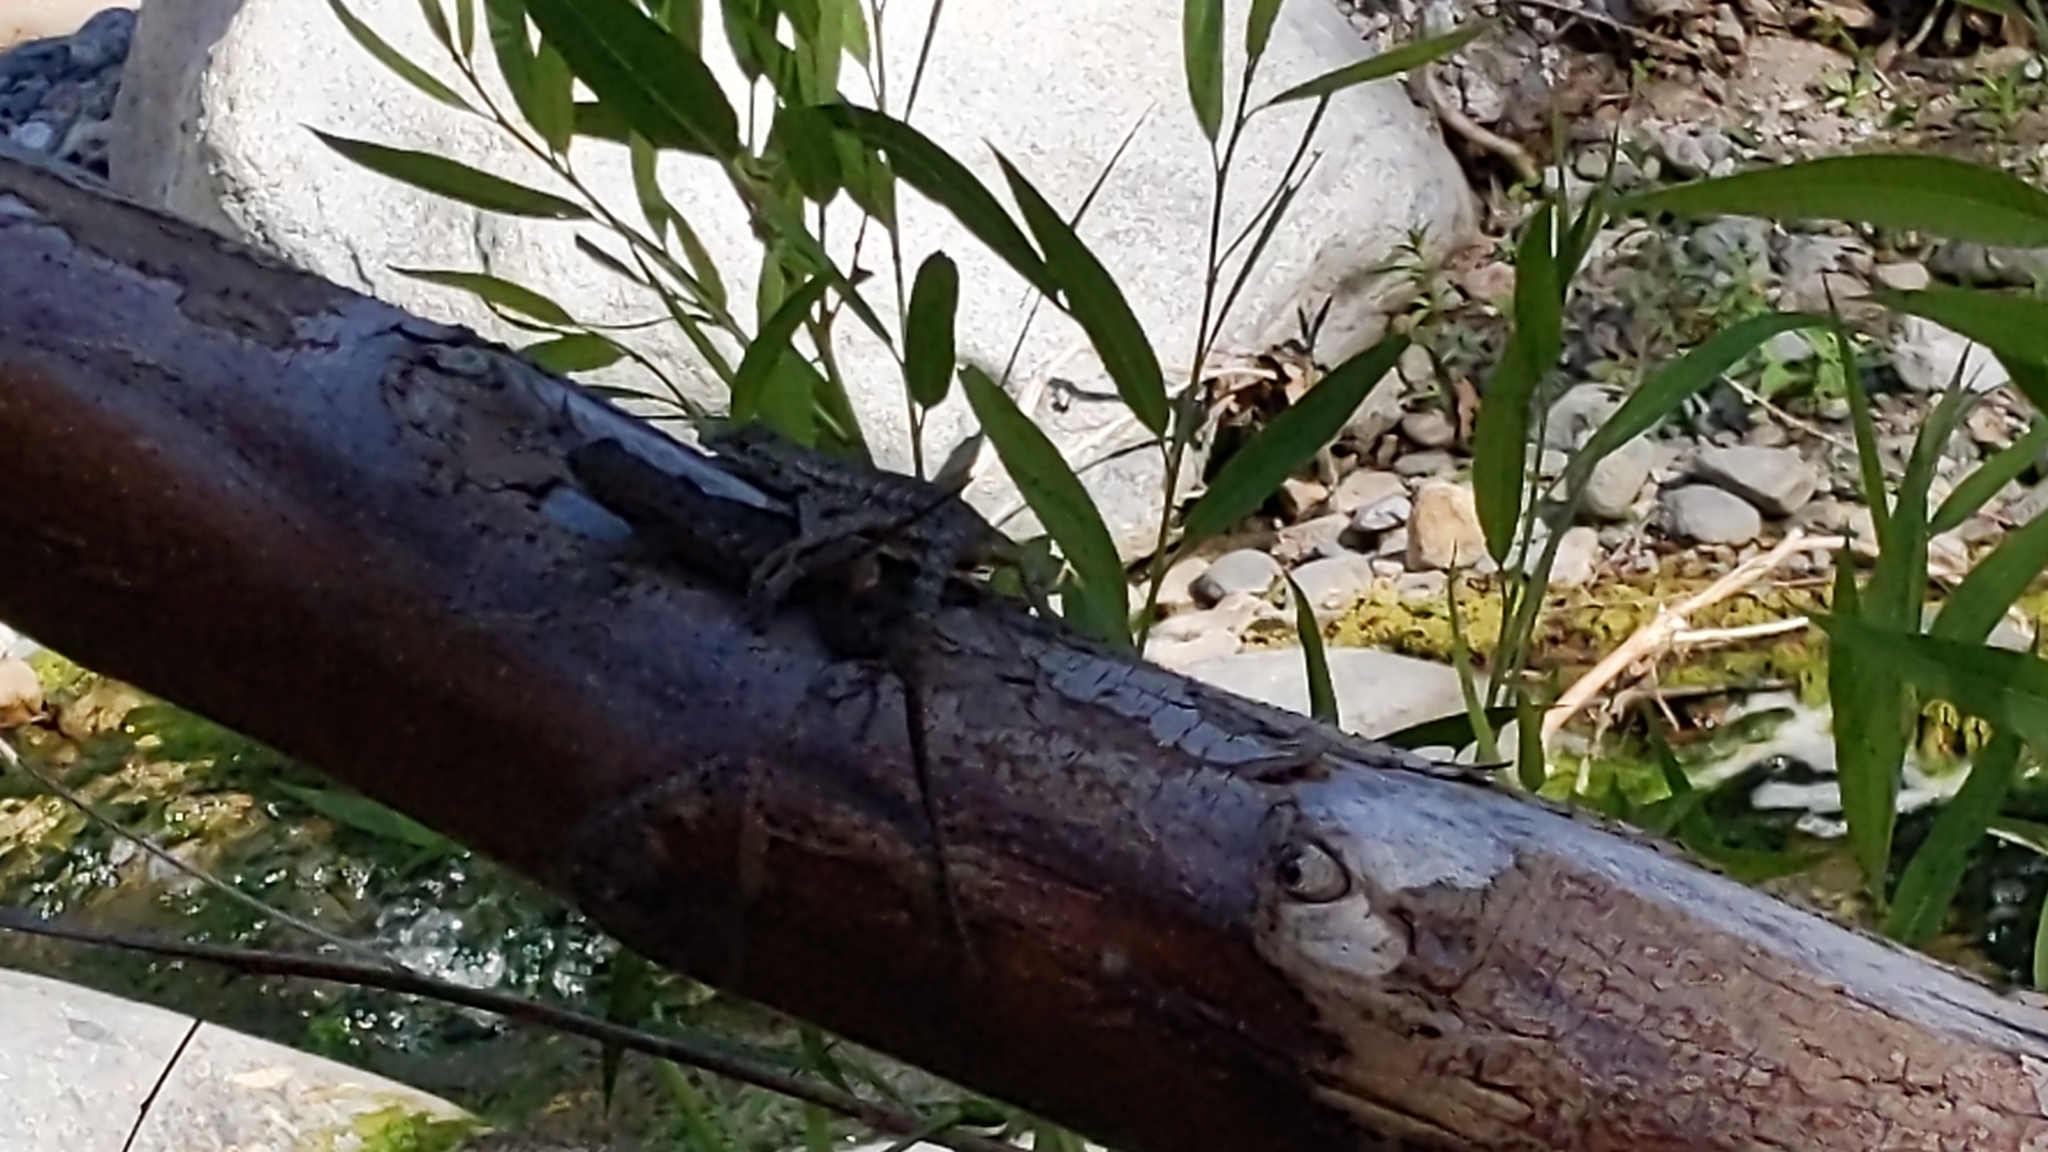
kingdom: Animalia
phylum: Chordata
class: Squamata
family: Phrynosomatidae
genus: Sceloporus
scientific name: Sceloporus occidentalis
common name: Western fence lizard
